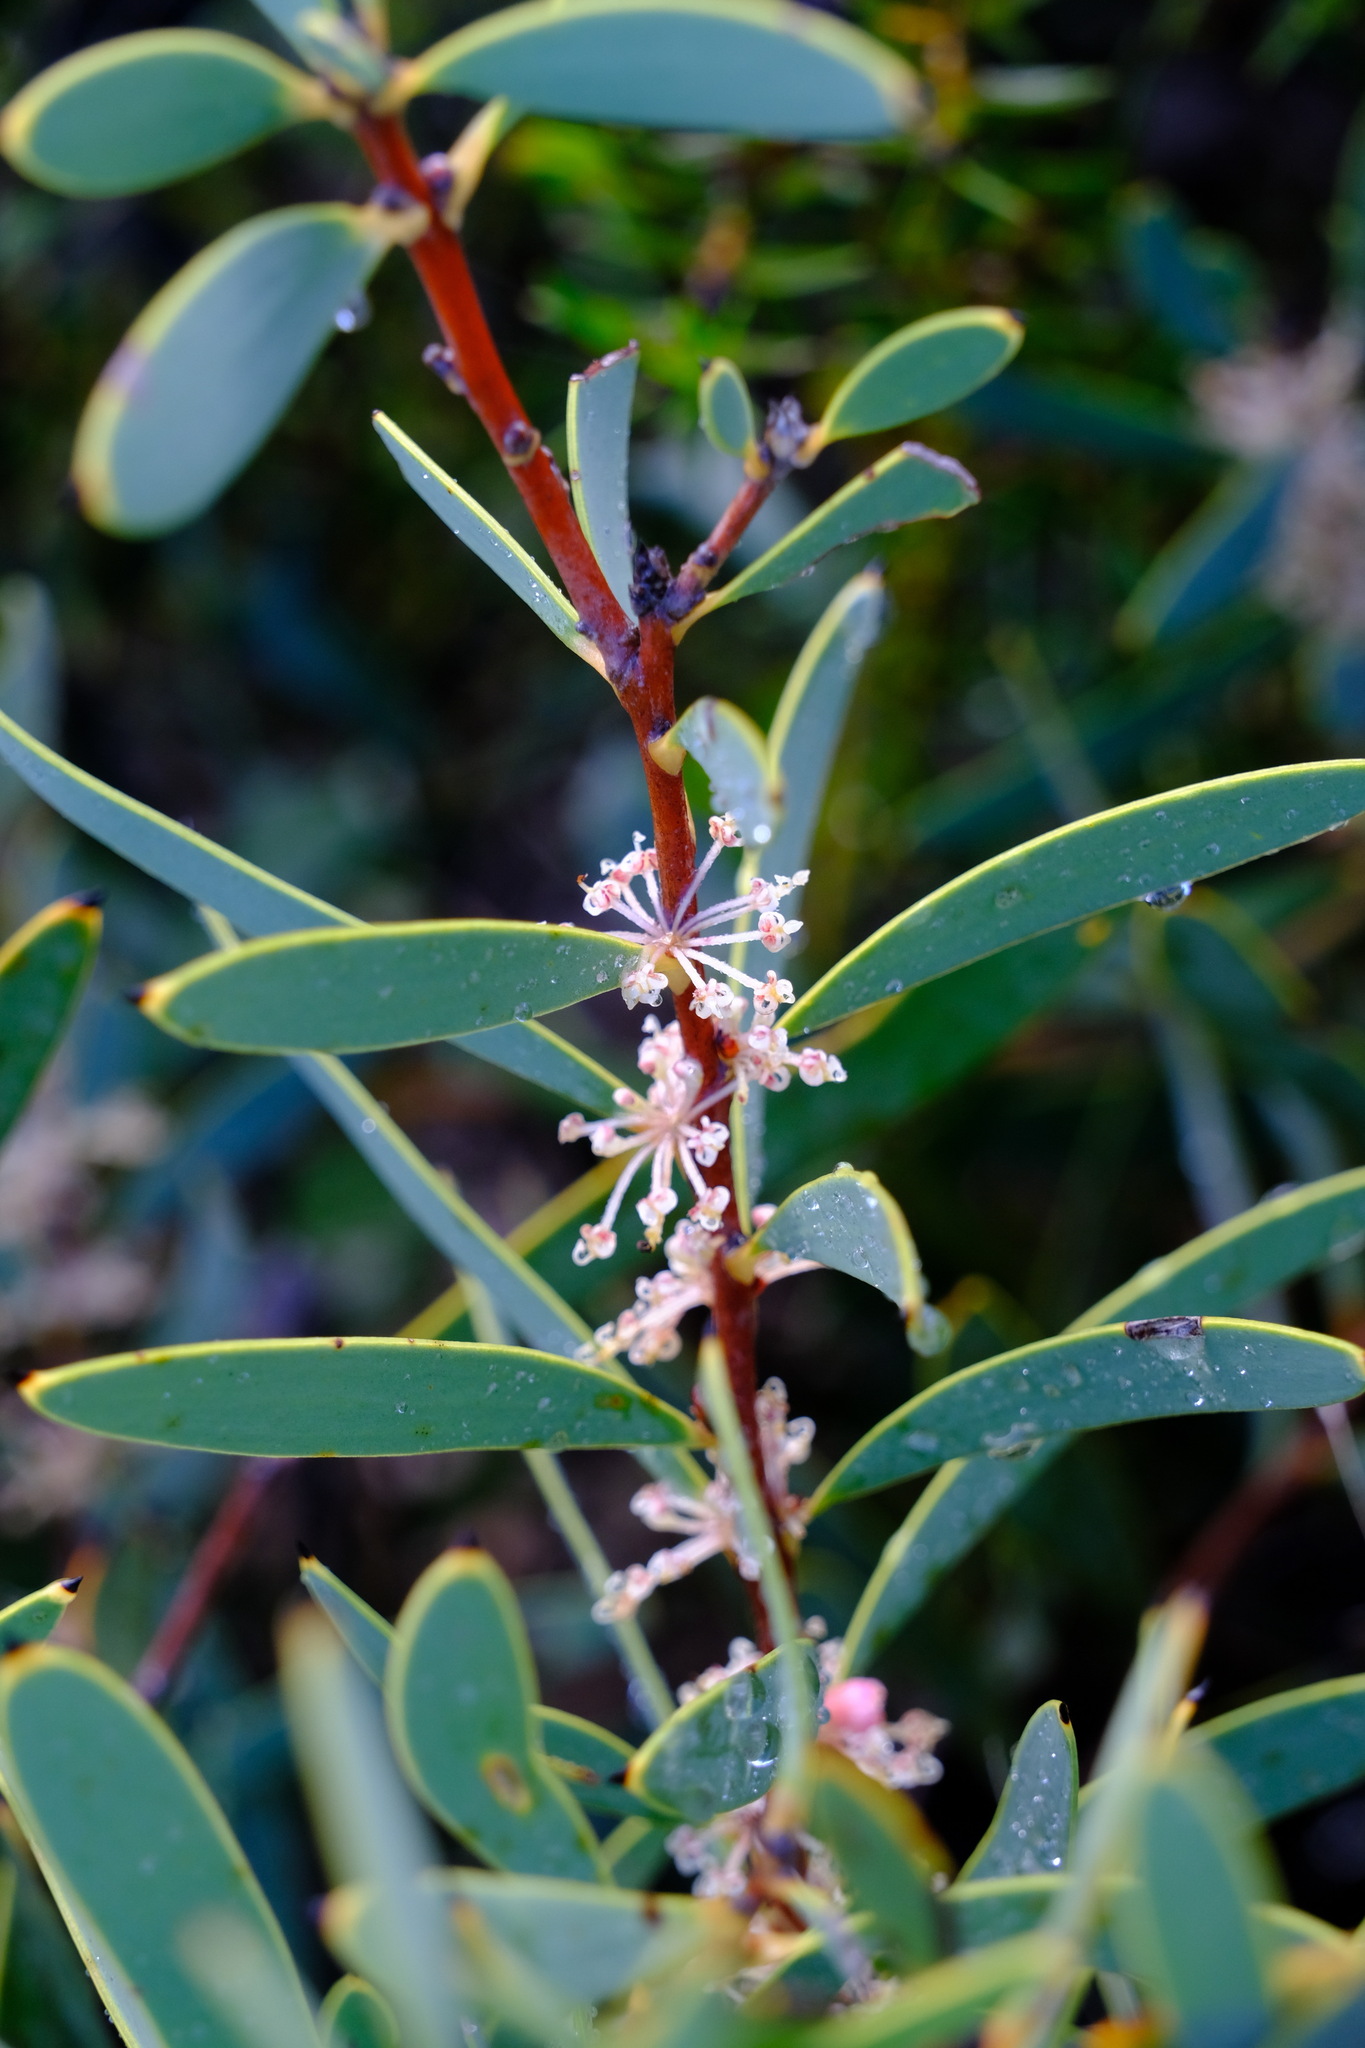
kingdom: Plantae
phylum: Tracheophyta
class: Magnoliopsida
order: Proteales
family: Proteaceae
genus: Hakea
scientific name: Hakea incrassata
